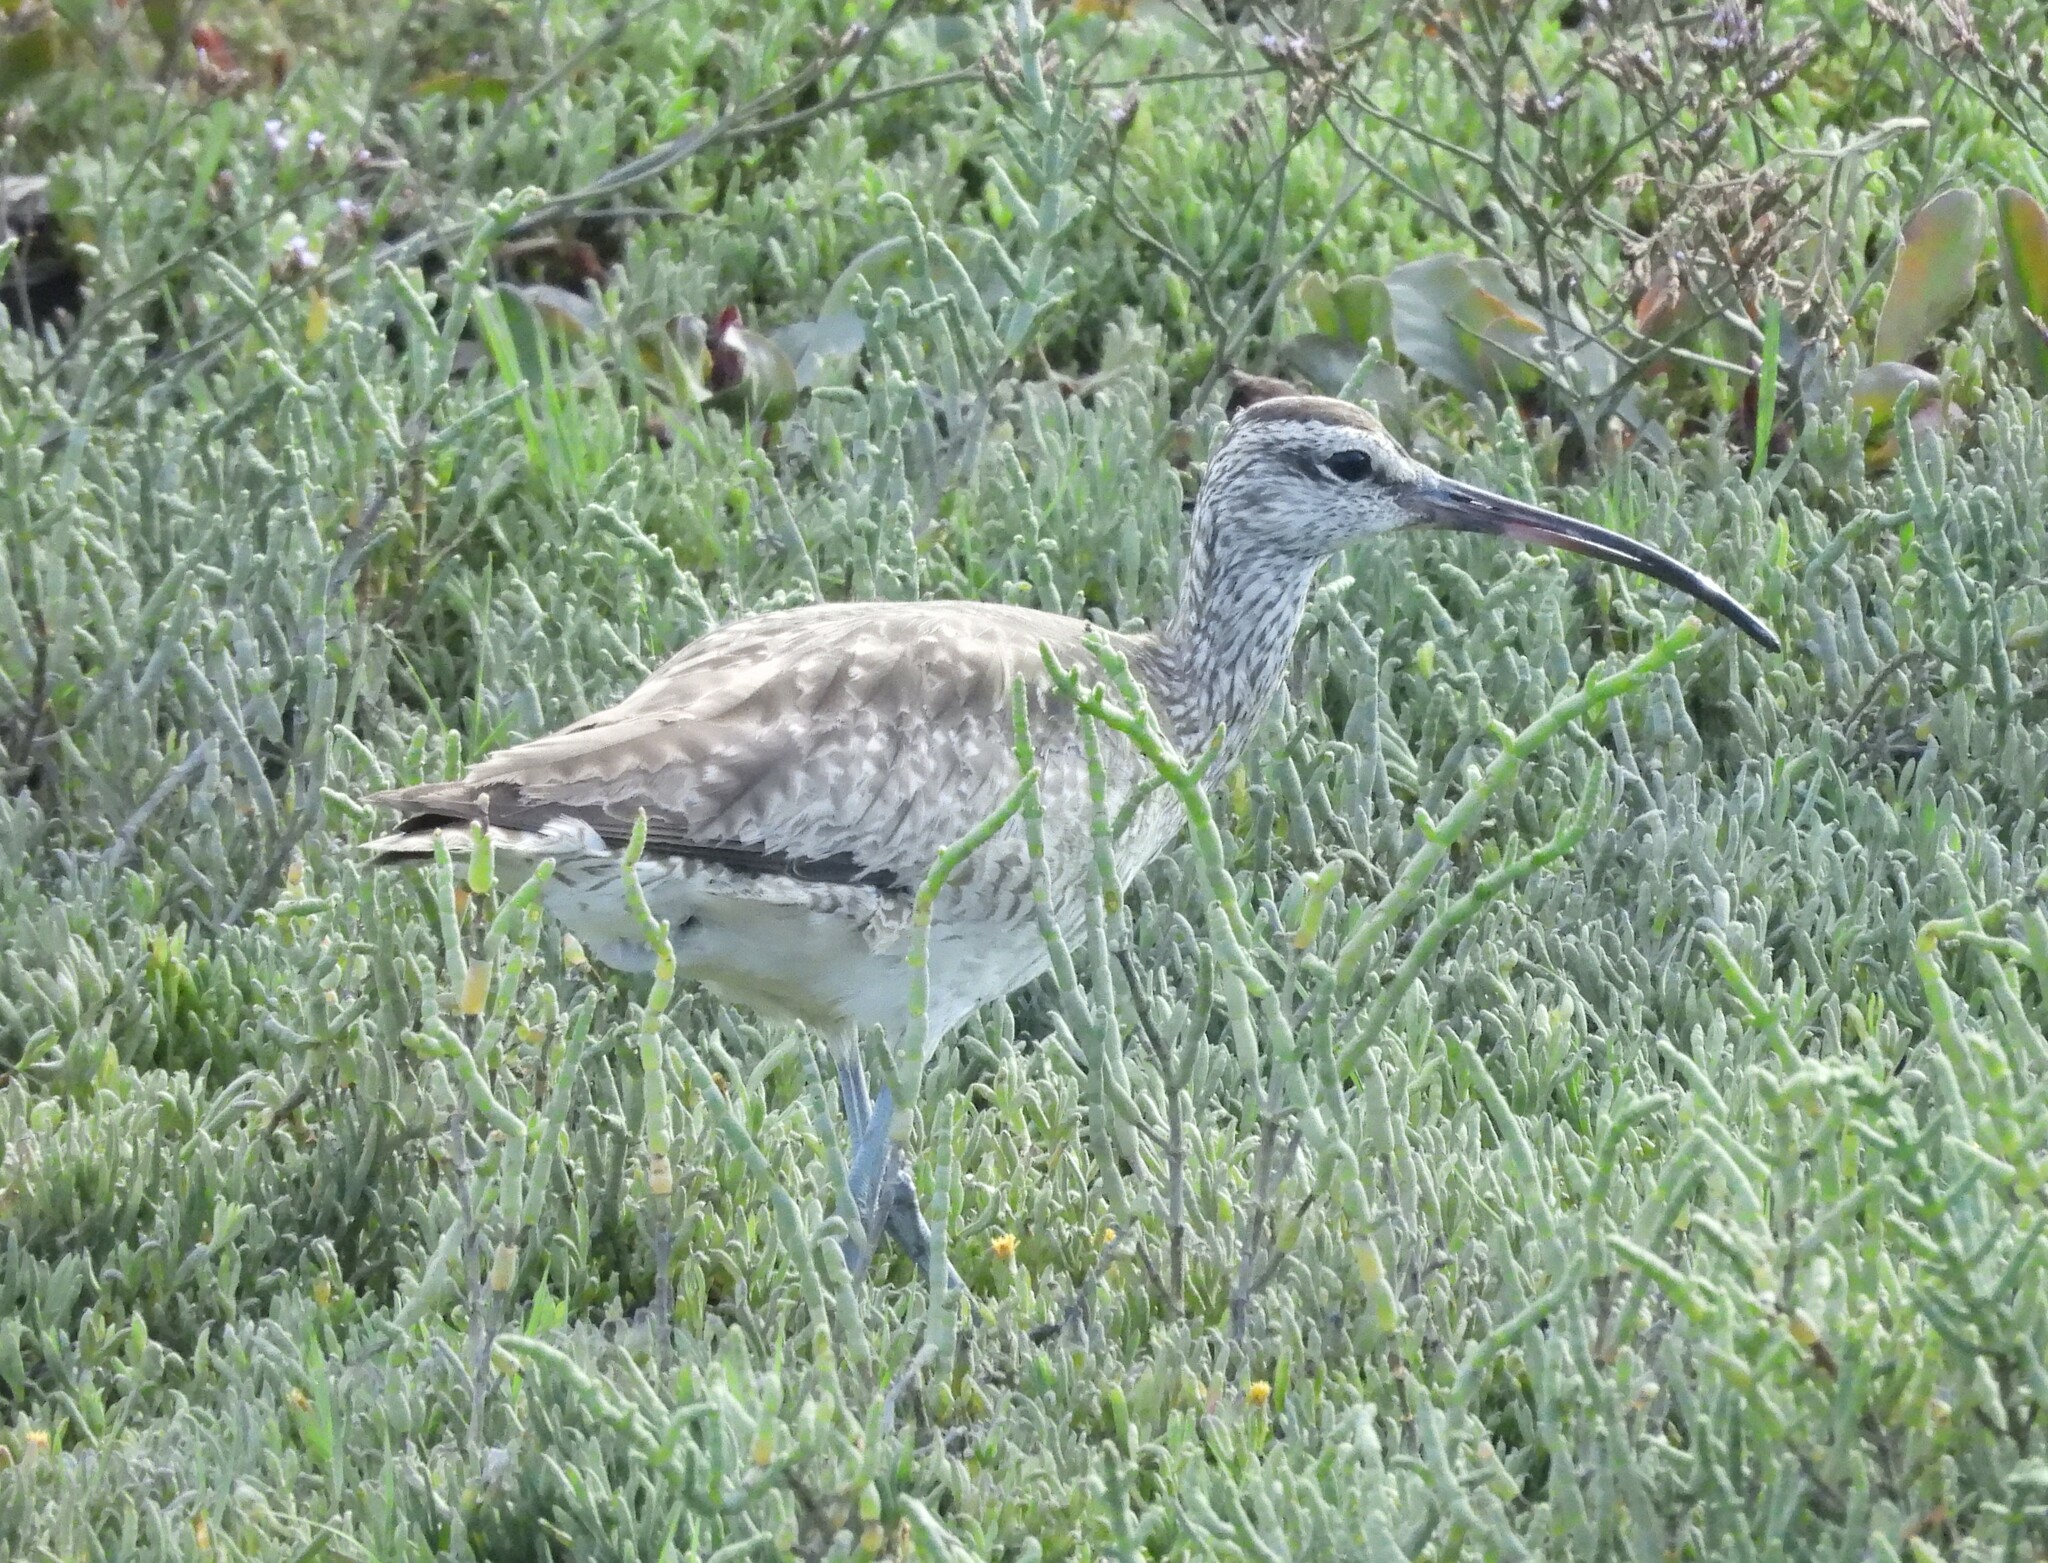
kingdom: Animalia
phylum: Chordata
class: Aves
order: Charadriiformes
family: Scolopacidae
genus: Numenius
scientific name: Numenius phaeopus
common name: Whimbrel
